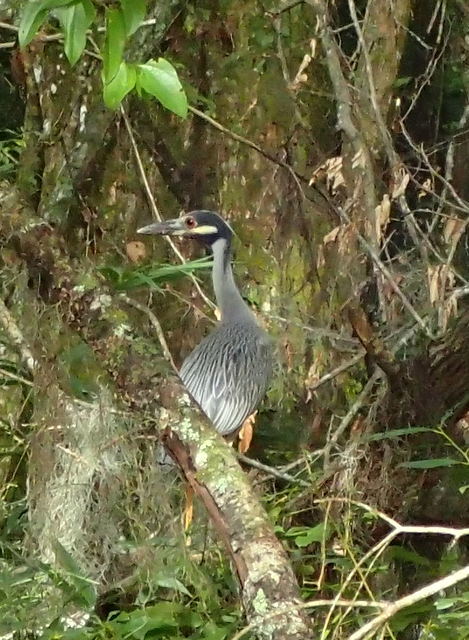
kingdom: Animalia
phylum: Chordata
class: Aves
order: Pelecaniformes
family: Ardeidae
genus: Nyctanassa
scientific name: Nyctanassa violacea
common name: Yellow-crowned night heron
